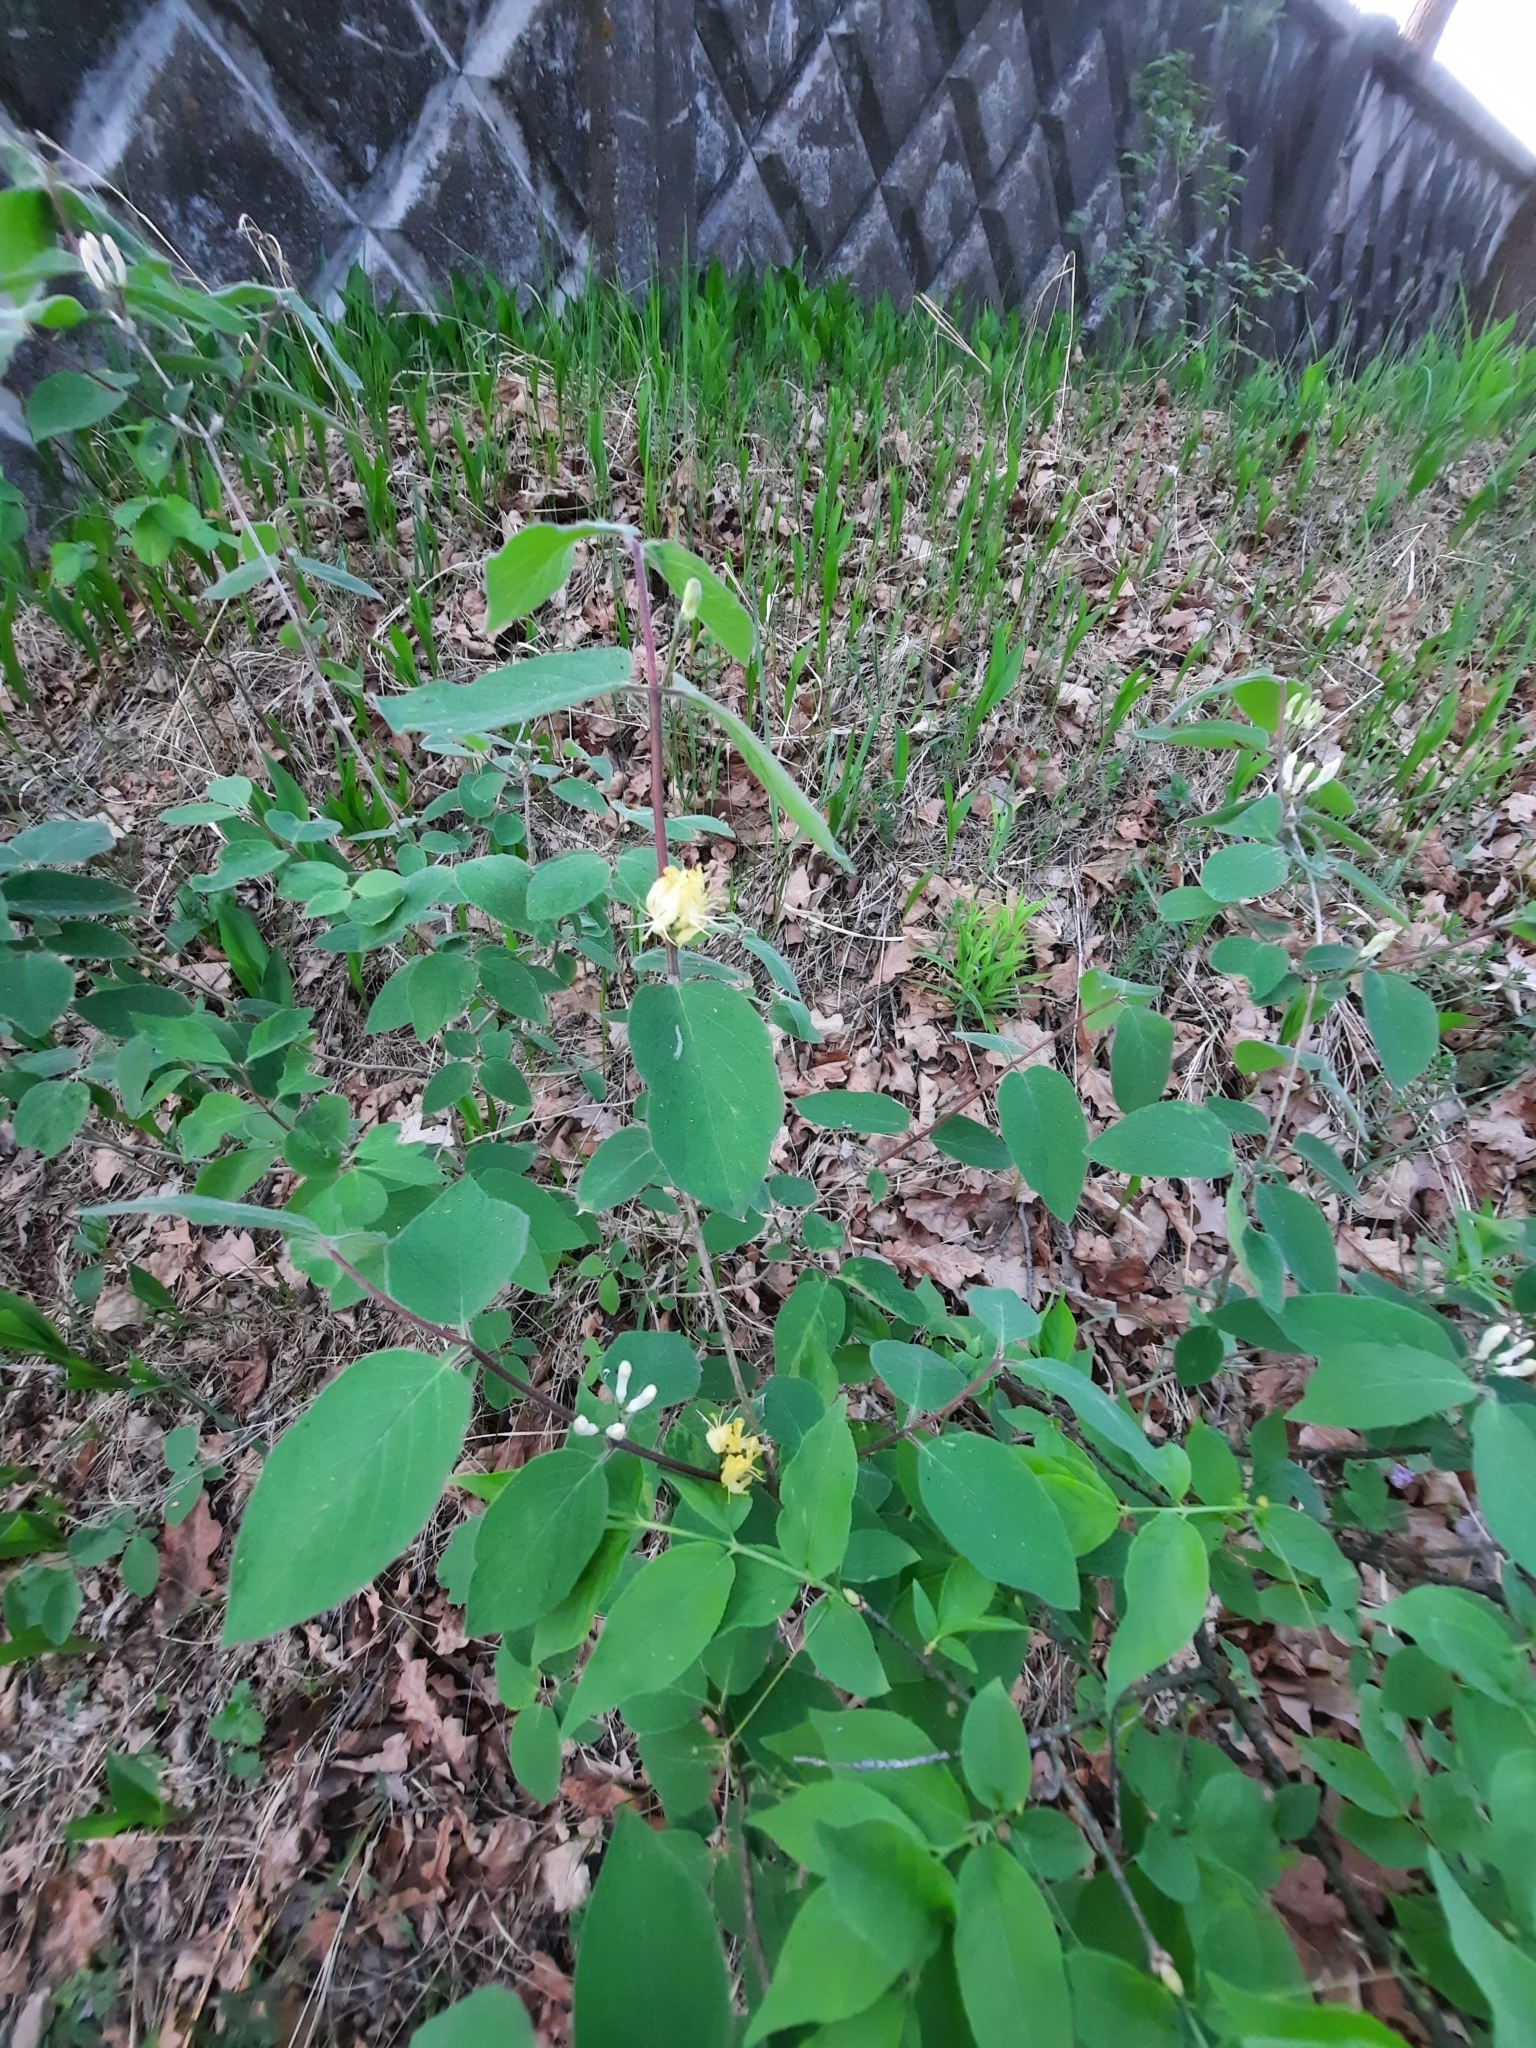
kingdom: Plantae
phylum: Tracheophyta
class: Magnoliopsida
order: Dipsacales
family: Caprifoliaceae
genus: Lonicera
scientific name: Lonicera xylosteum
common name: Fly honeysuckle
